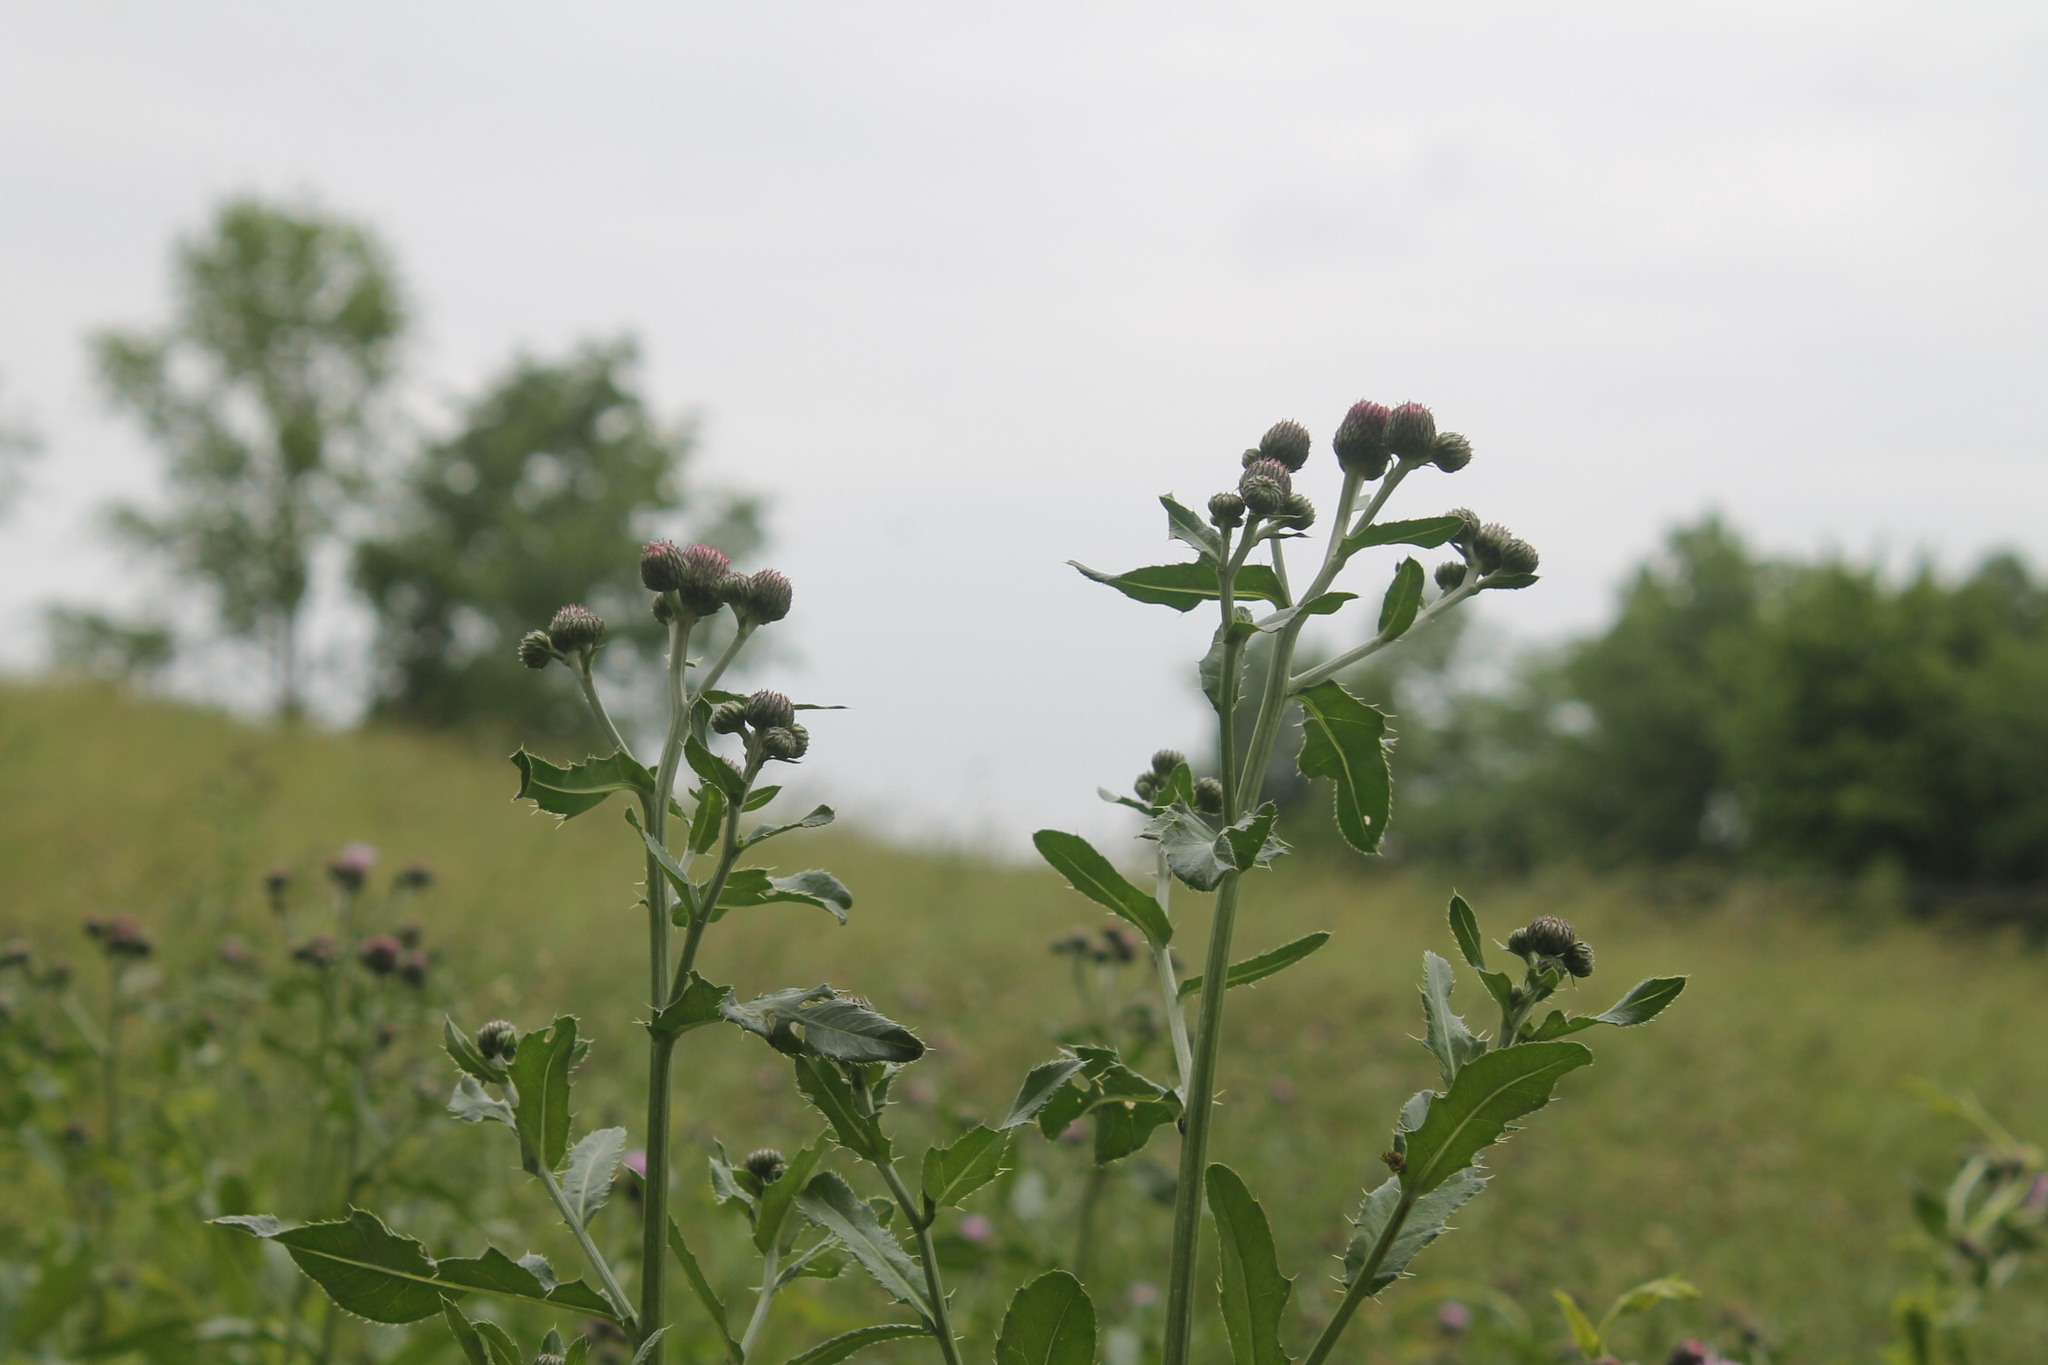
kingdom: Plantae
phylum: Tracheophyta
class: Magnoliopsida
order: Asterales
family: Asteraceae
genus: Cirsium
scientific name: Cirsium arvense
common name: Creeping thistle
